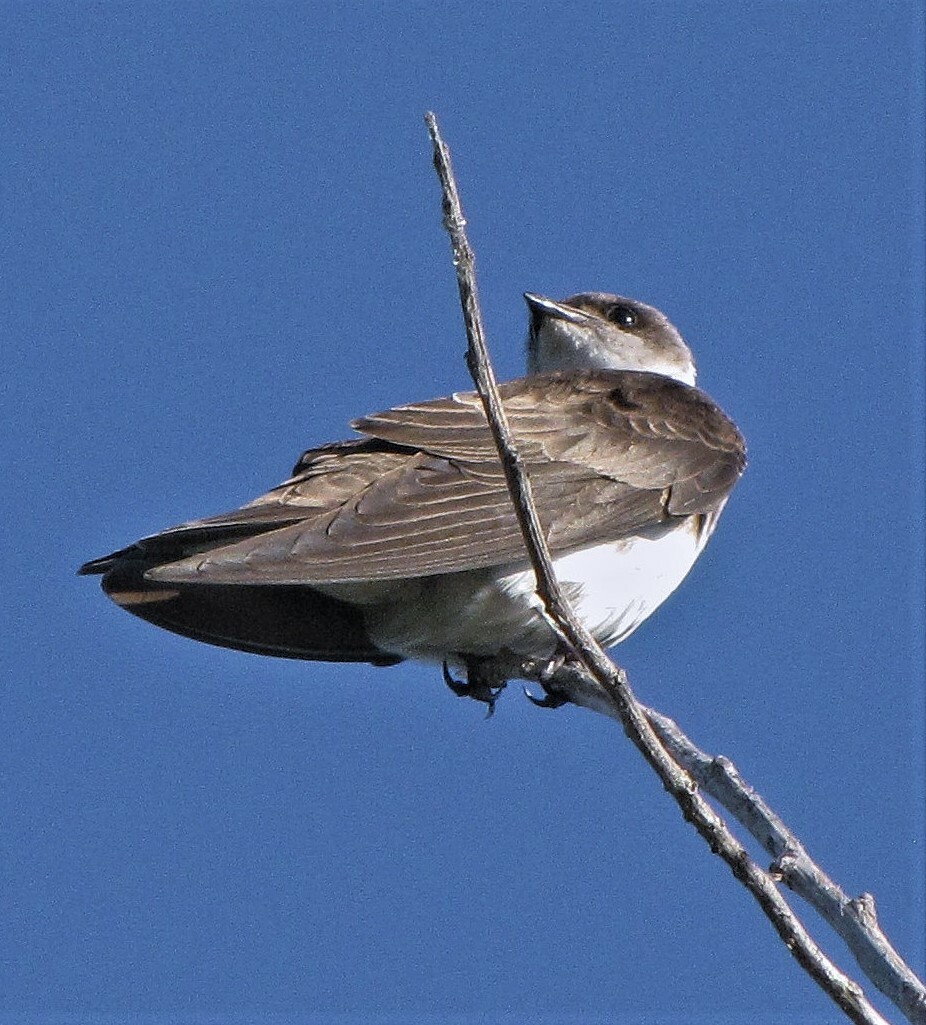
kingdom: Animalia
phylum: Chordata
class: Aves
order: Passeriformes
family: Hirundinidae
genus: Progne
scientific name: Progne tapera
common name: Brown-chested martin
